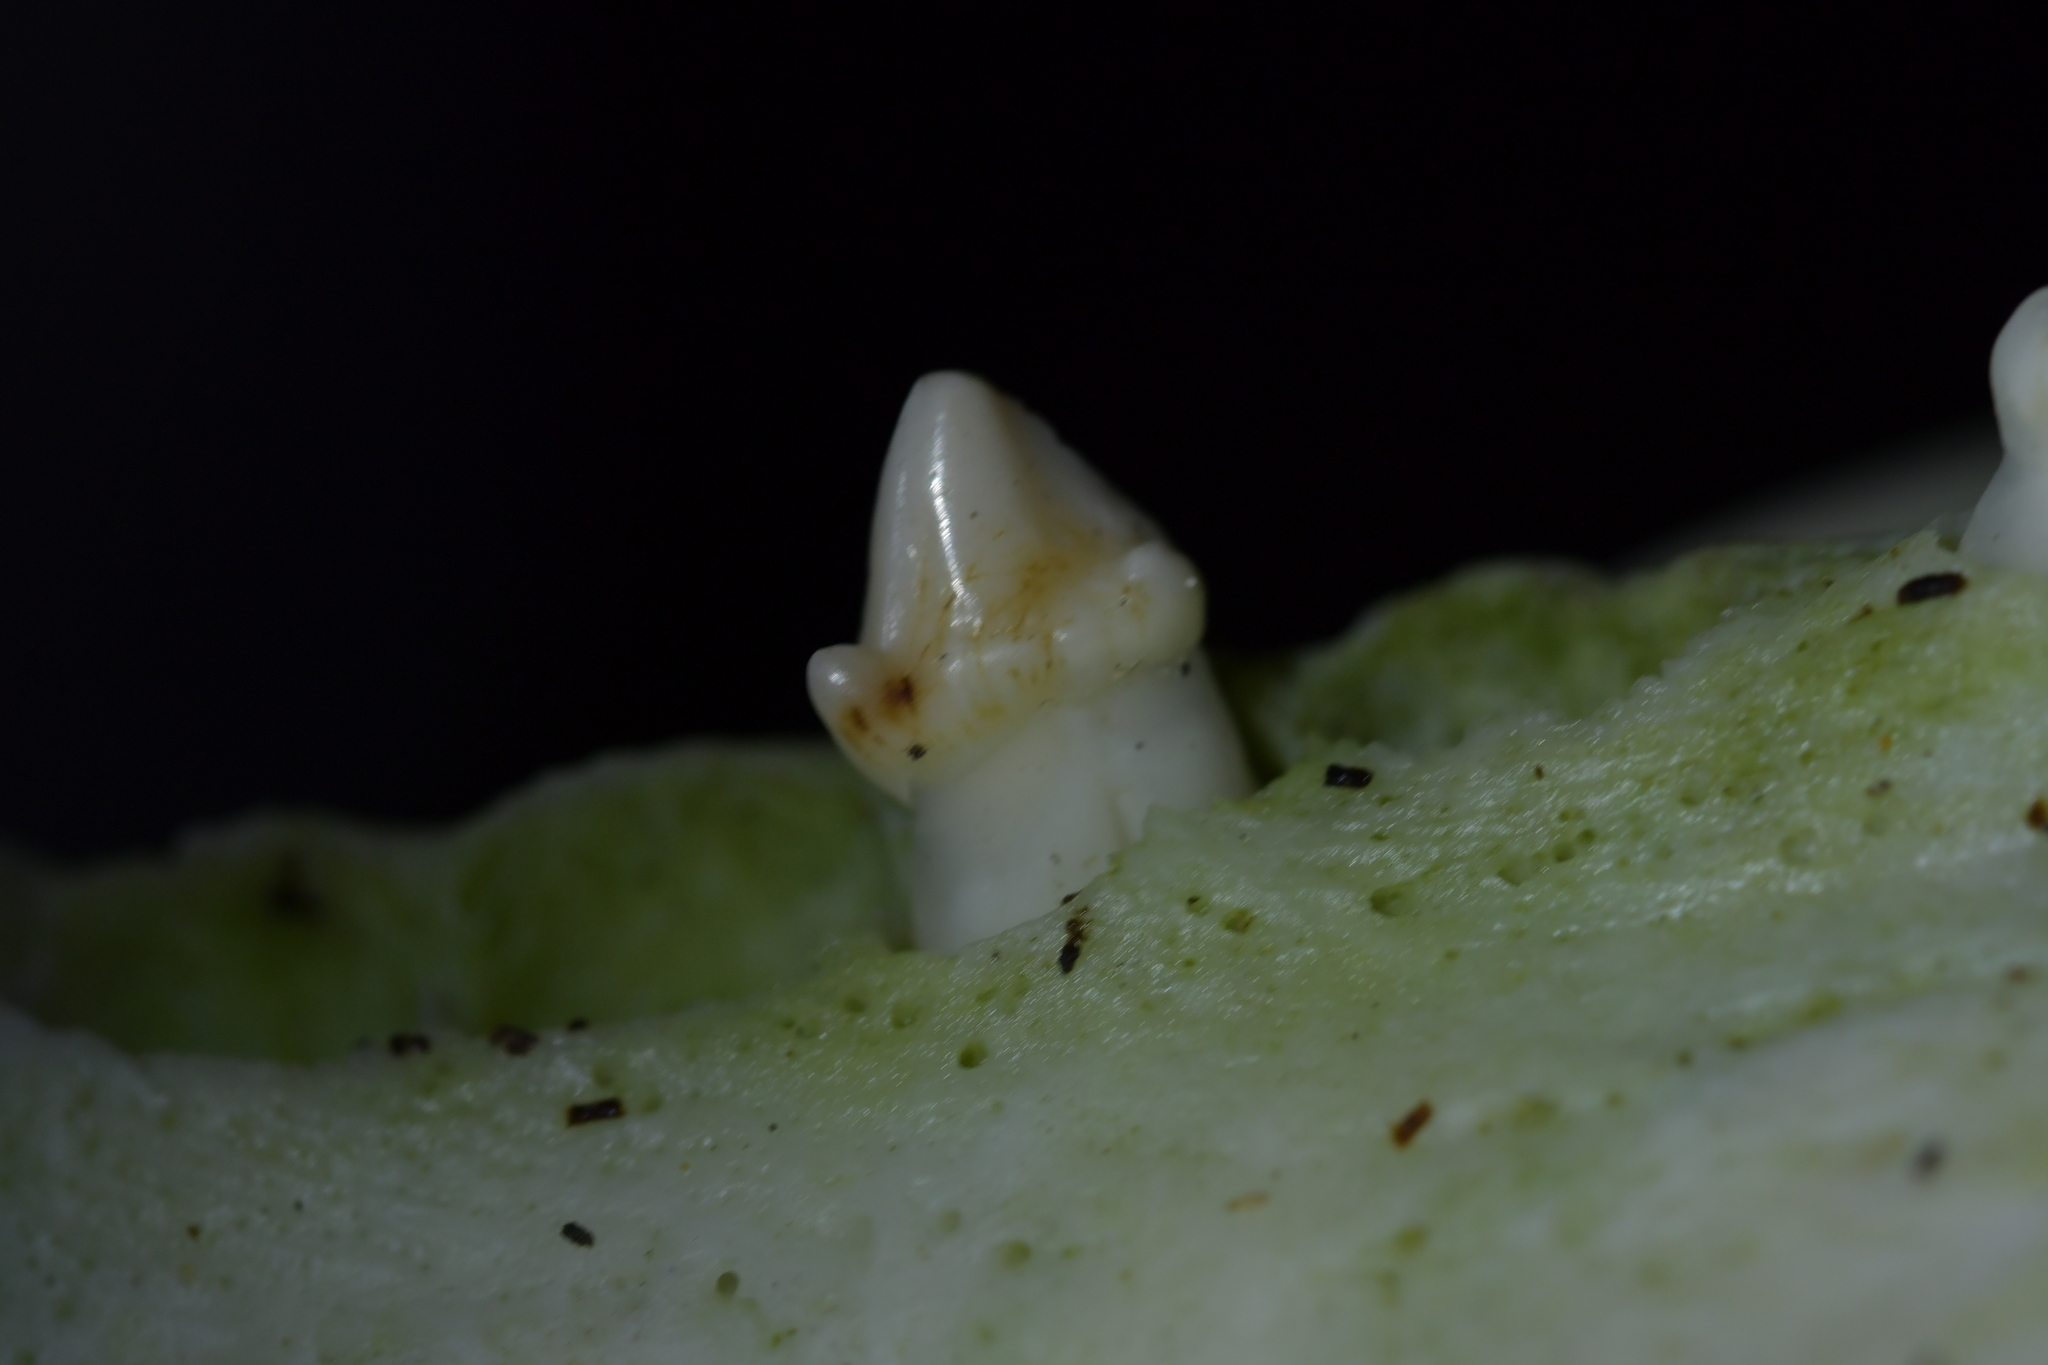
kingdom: Animalia
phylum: Chordata
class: Mammalia
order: Carnivora
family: Otariidae
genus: Arctocephalus
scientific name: Arctocephalus forsteri
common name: New zealand fur seal
